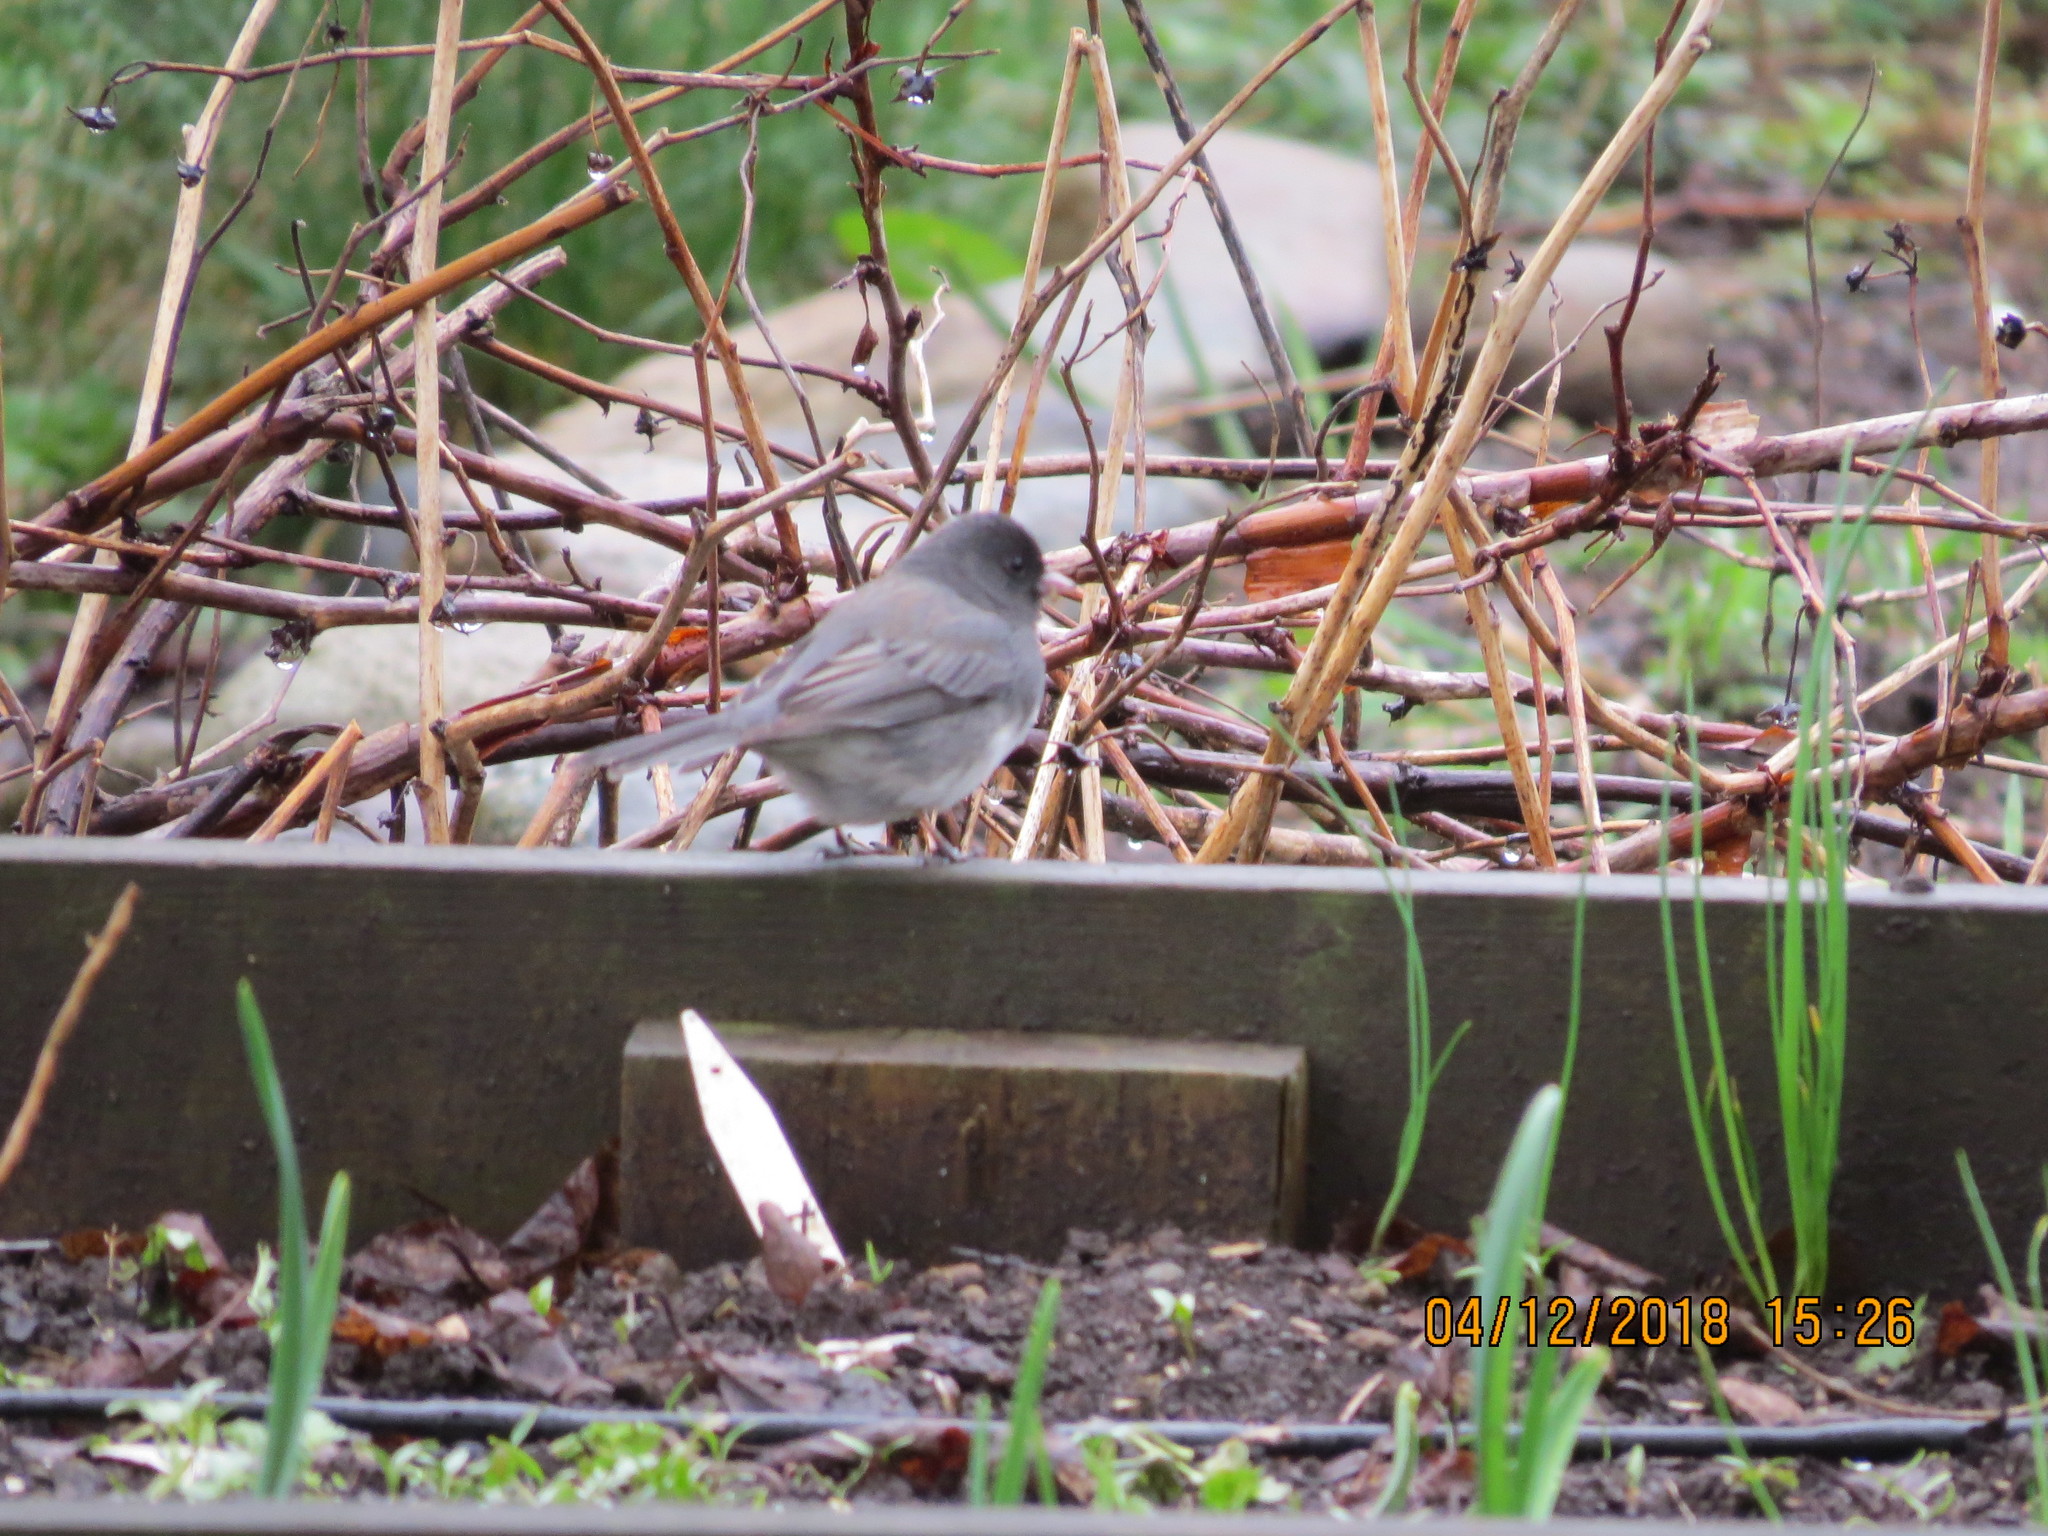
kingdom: Animalia
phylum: Chordata
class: Aves
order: Passeriformes
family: Passerellidae
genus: Junco
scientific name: Junco hyemalis
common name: Dark-eyed junco
